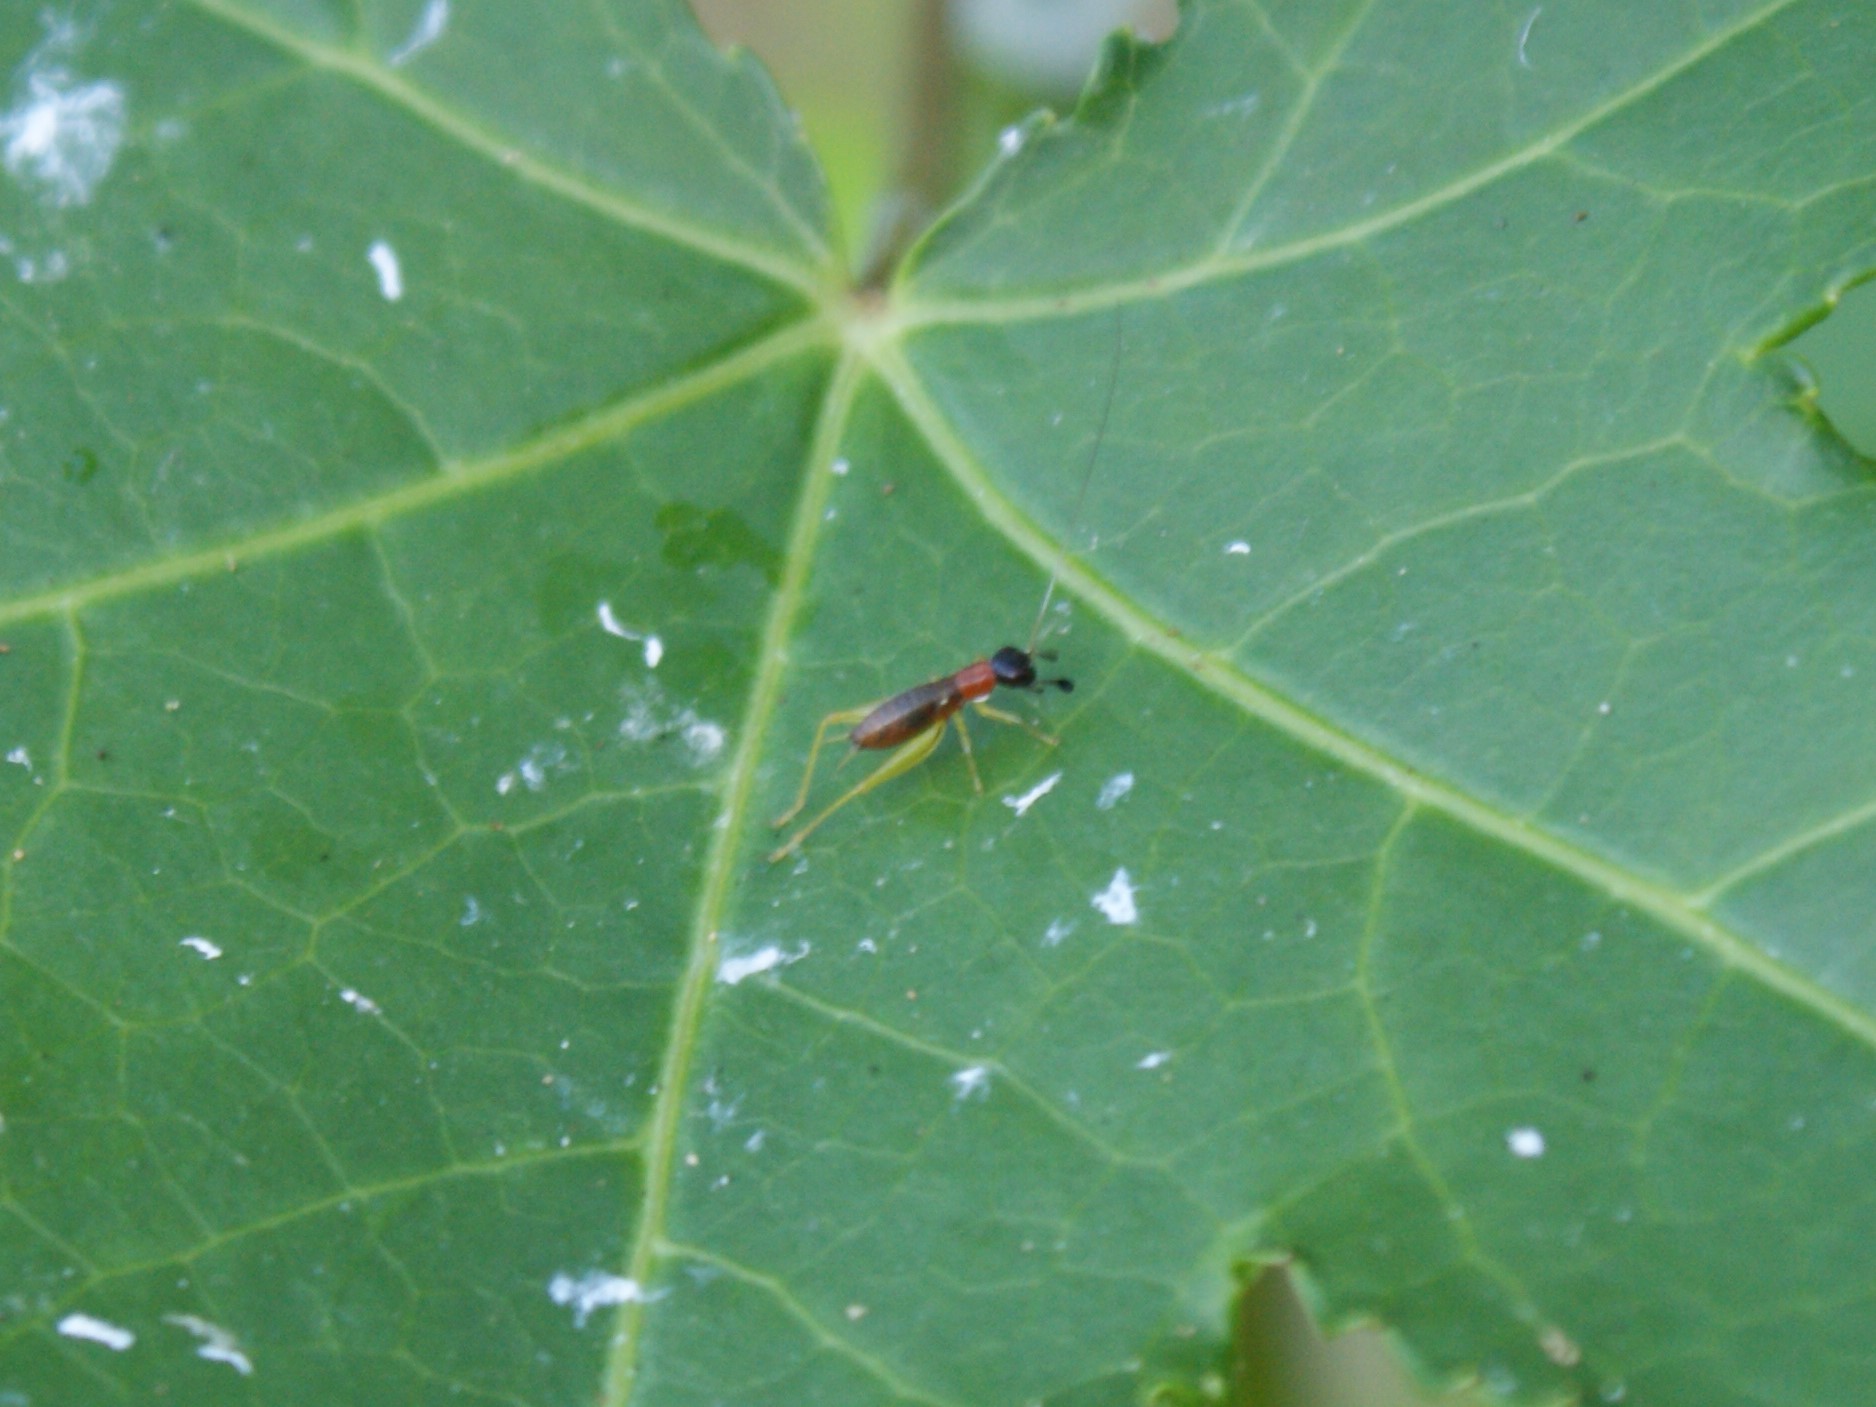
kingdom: Animalia
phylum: Arthropoda
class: Insecta
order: Orthoptera
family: Trigonidiidae
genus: Phyllopalpus
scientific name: Phyllopalpus pulchellus
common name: Handsome trig
